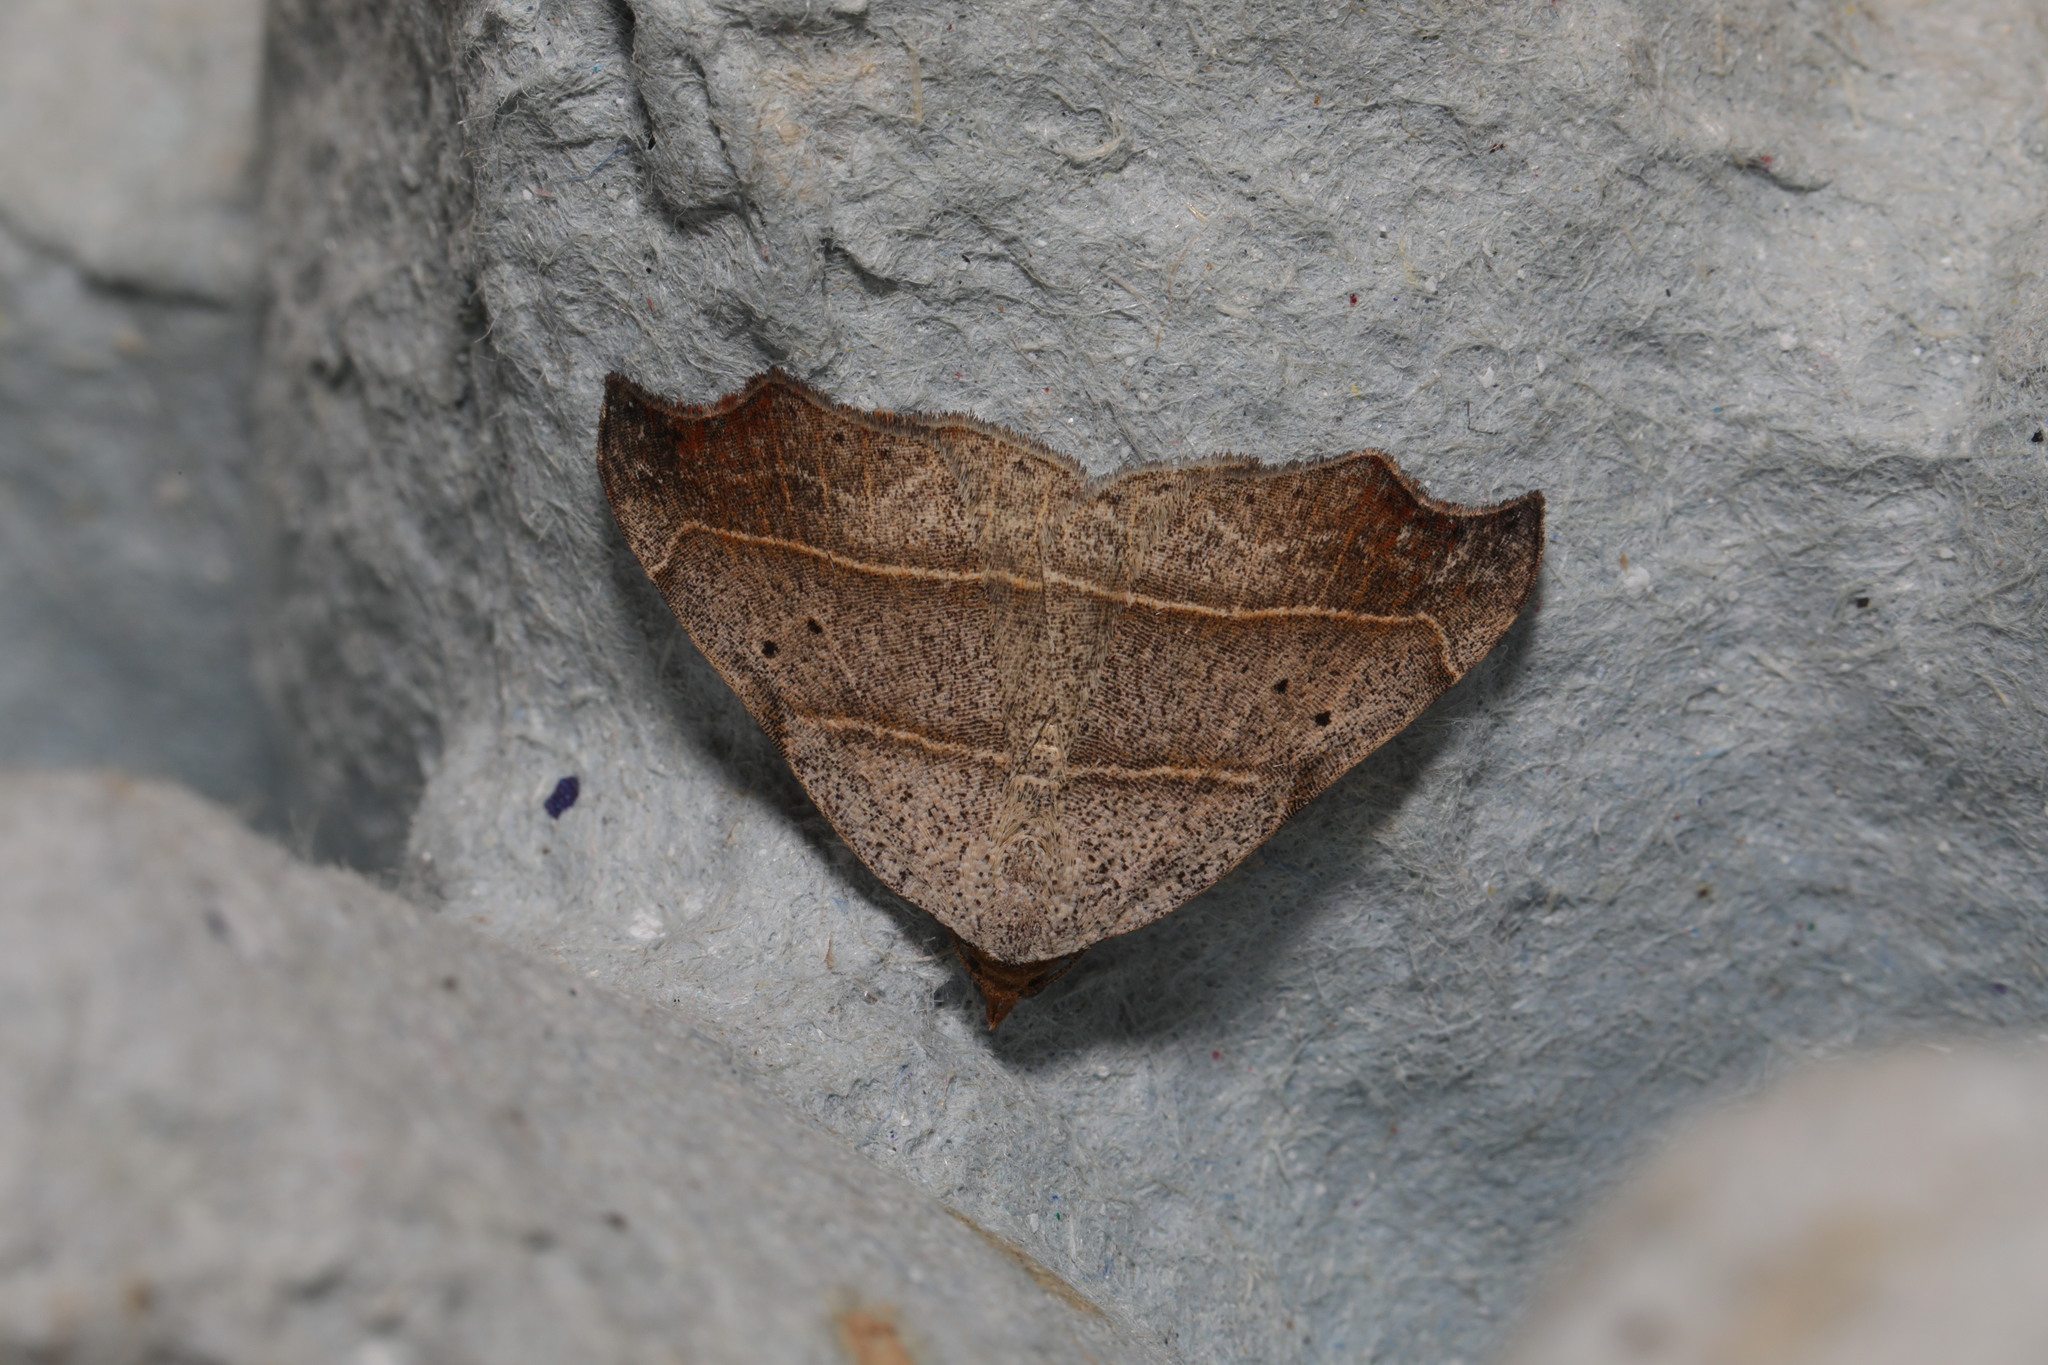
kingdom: Animalia
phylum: Arthropoda
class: Insecta
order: Lepidoptera
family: Erebidae
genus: Laspeyria
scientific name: Laspeyria flexula
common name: Beautiful hook-tip
